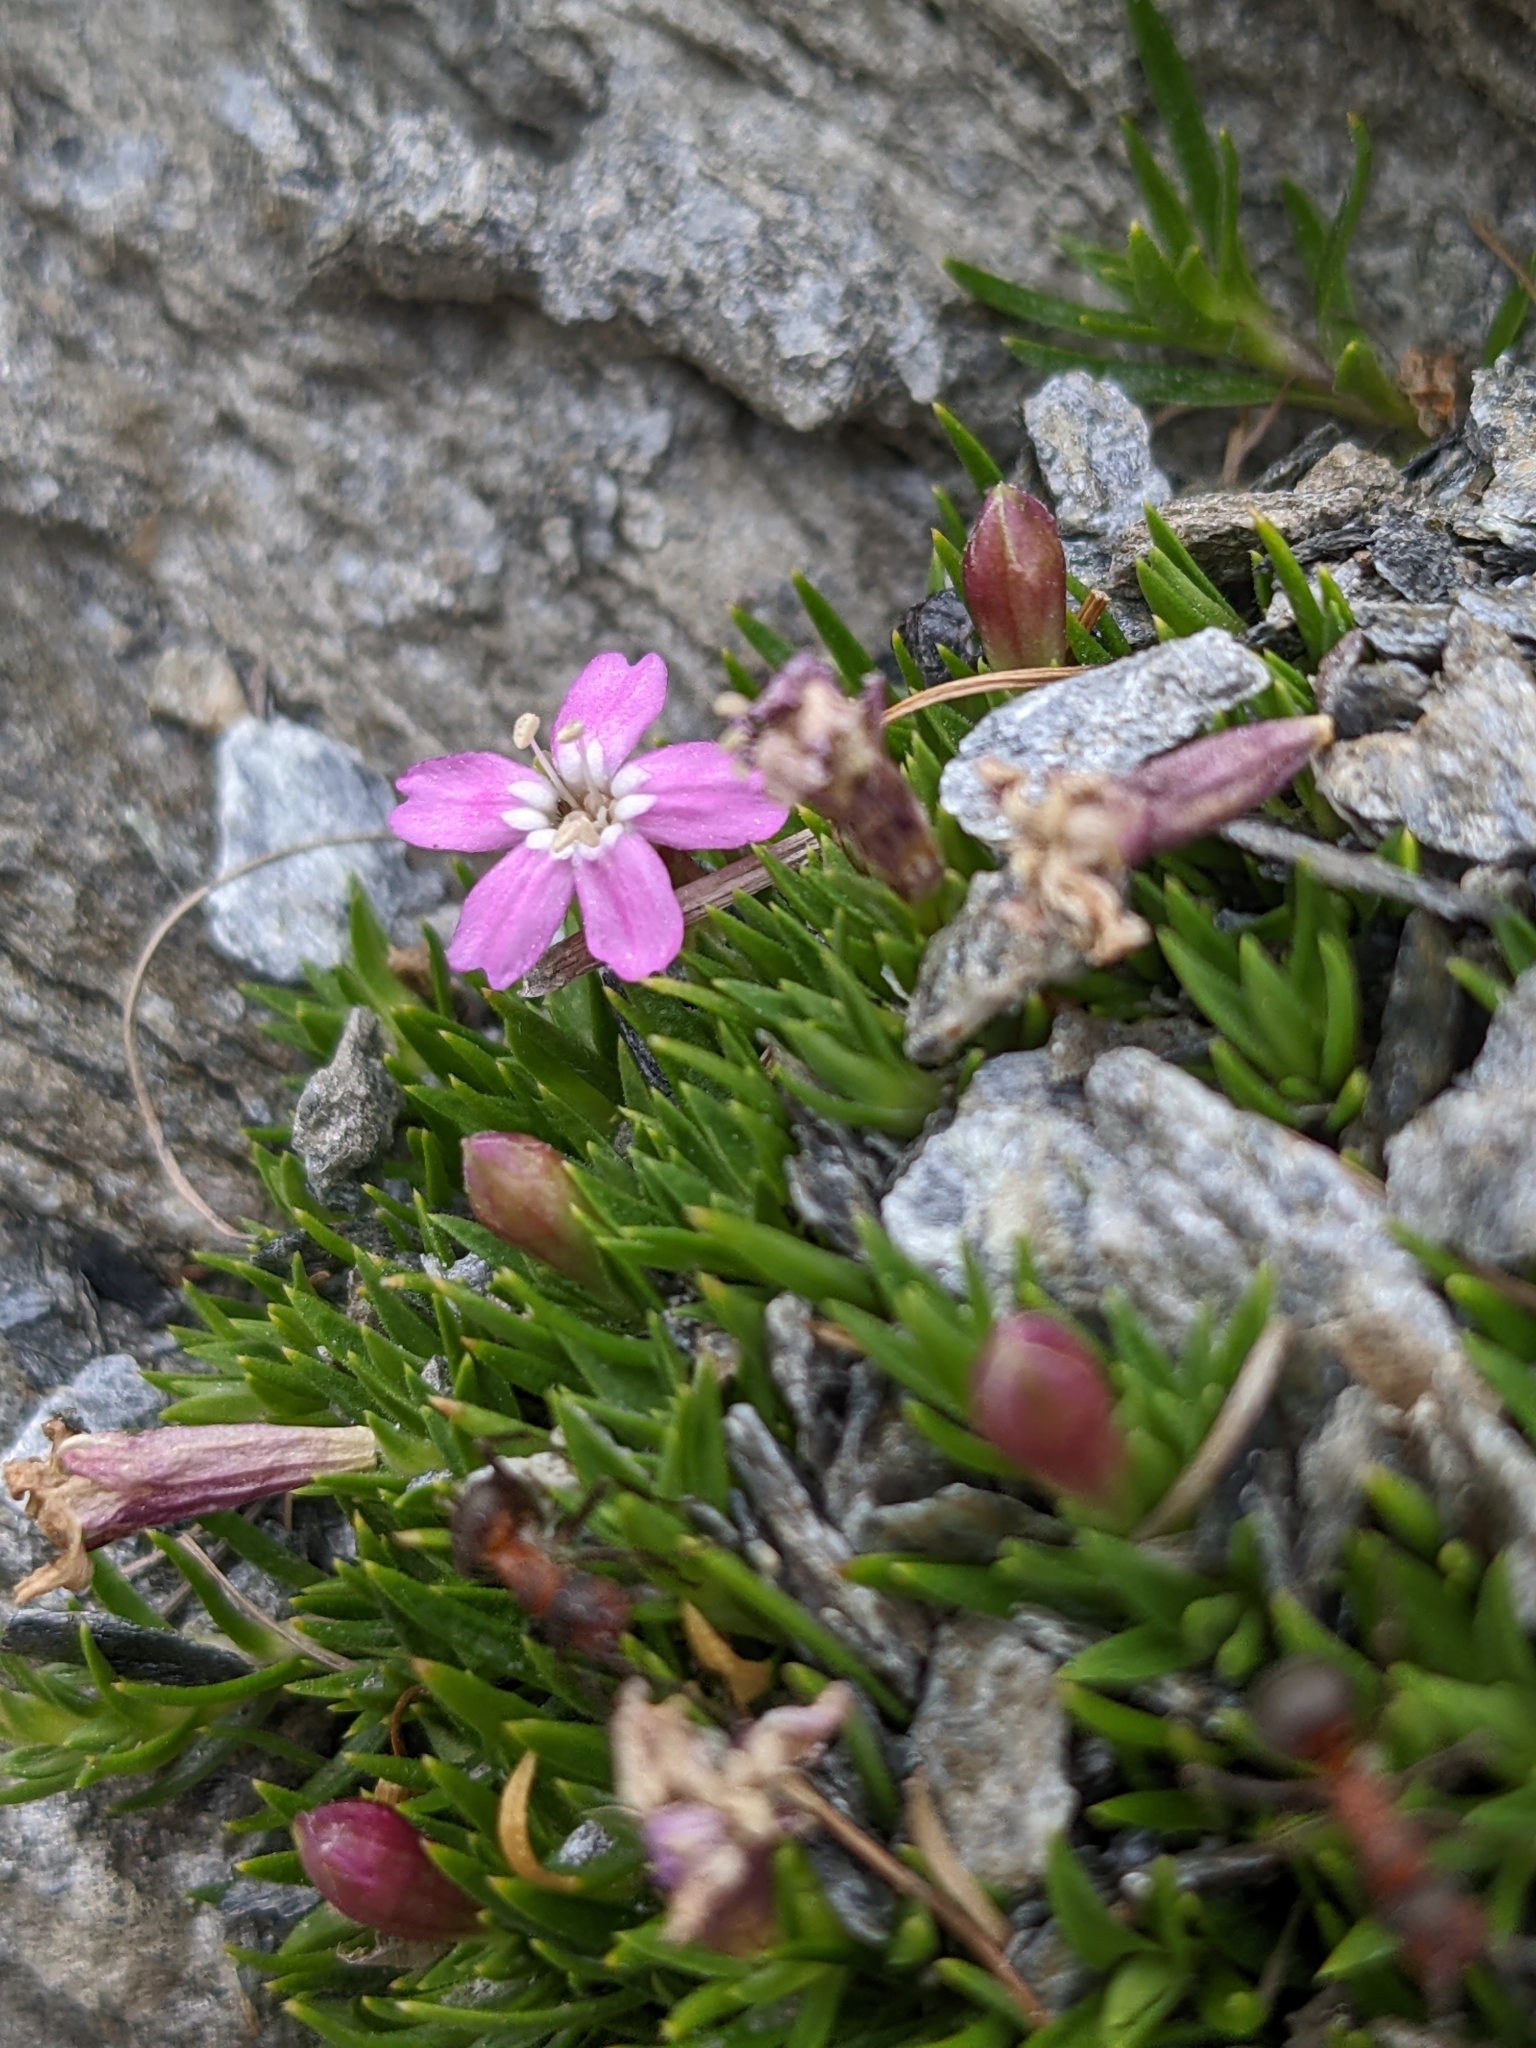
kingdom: Plantae
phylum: Tracheophyta
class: Magnoliopsida
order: Caryophyllales
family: Caryophyllaceae
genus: Silene
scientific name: Silene acaulis
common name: Moss campion
